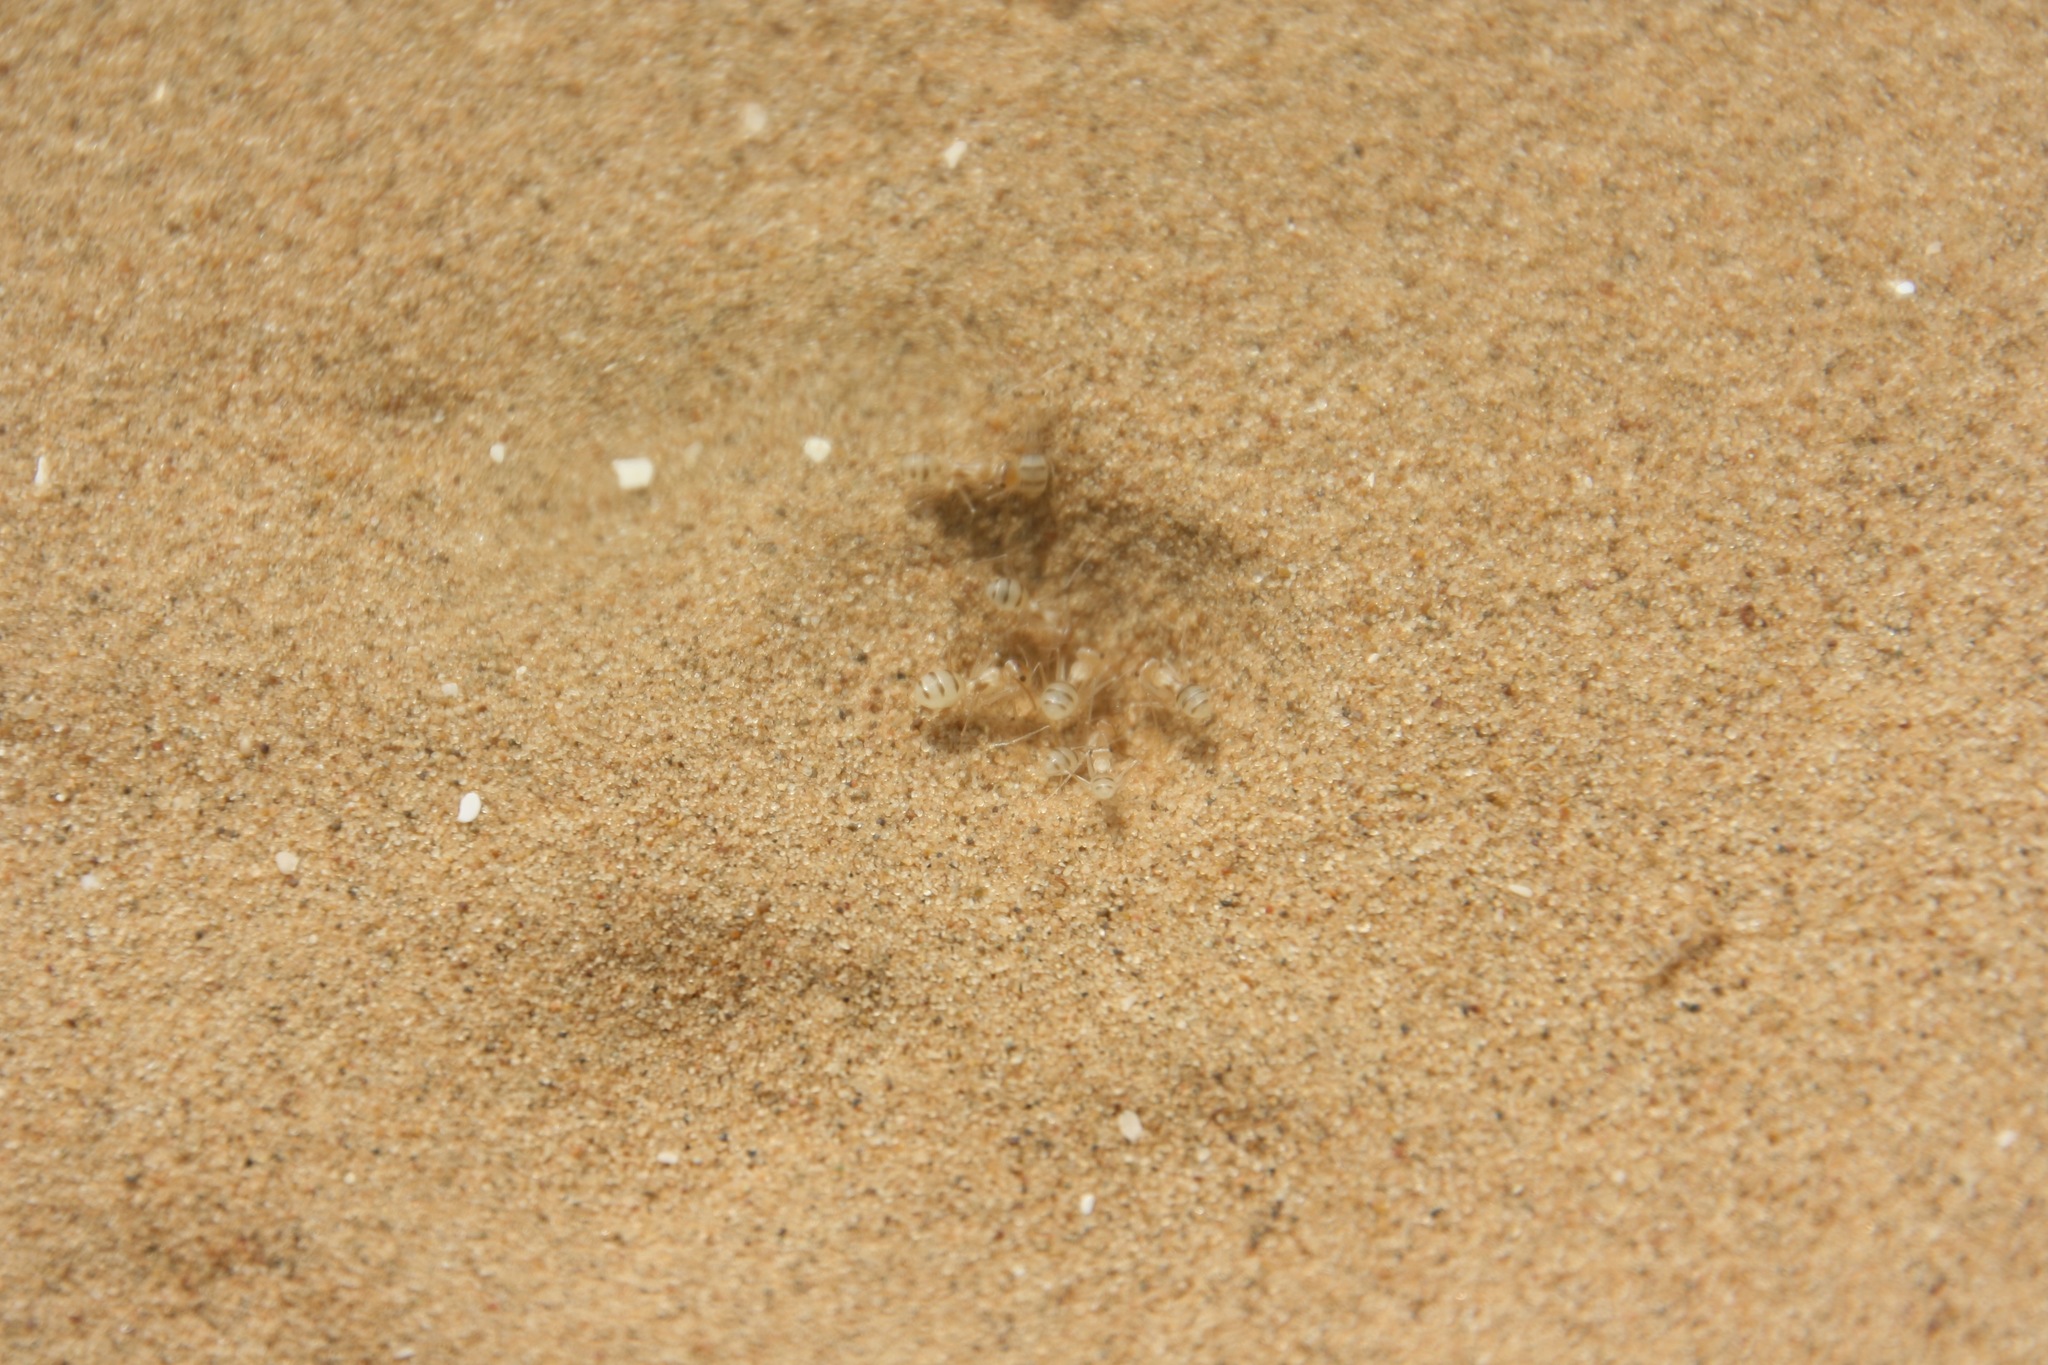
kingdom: Animalia
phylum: Arthropoda
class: Insecta
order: Hymenoptera
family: Formicidae
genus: Cataglyphis
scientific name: Cataglyphis pallidus
